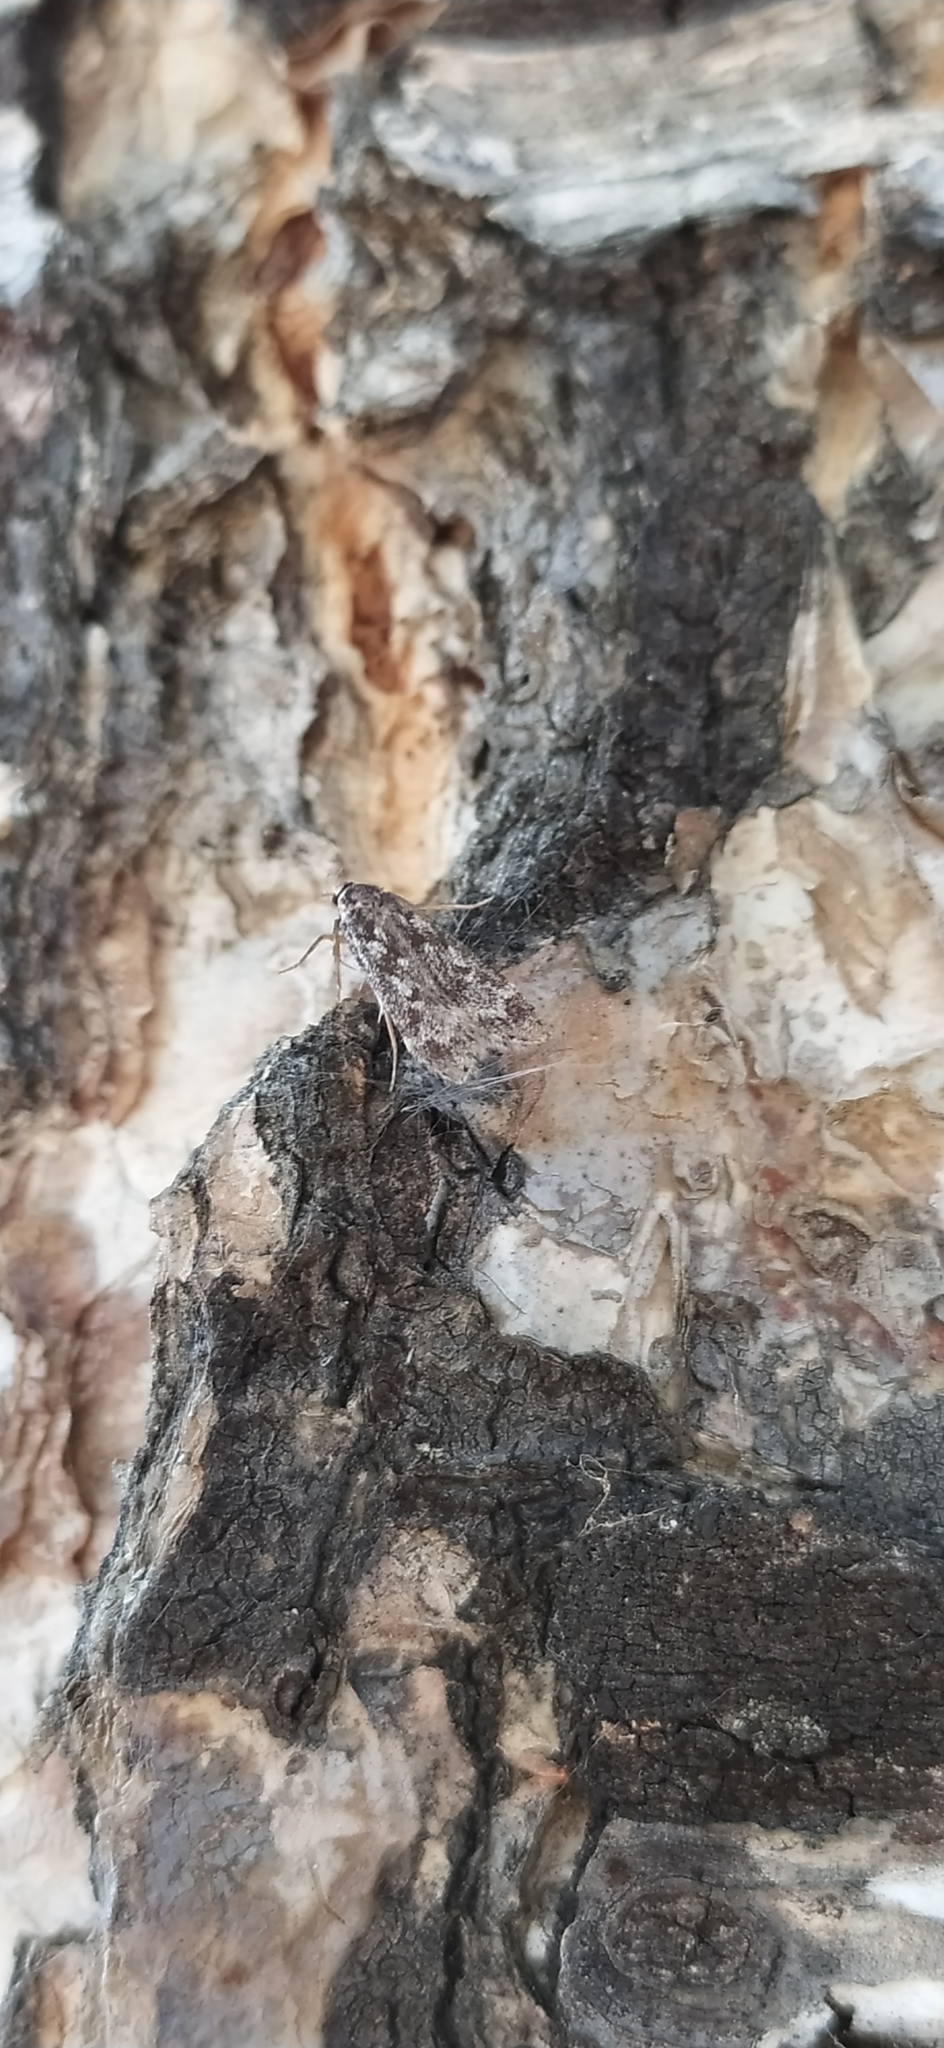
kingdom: Animalia
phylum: Arthropoda
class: Insecta
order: Lepidoptera
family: Gelechiidae
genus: Anacampsis
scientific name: Anacampsis blattariella
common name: Birch sober
